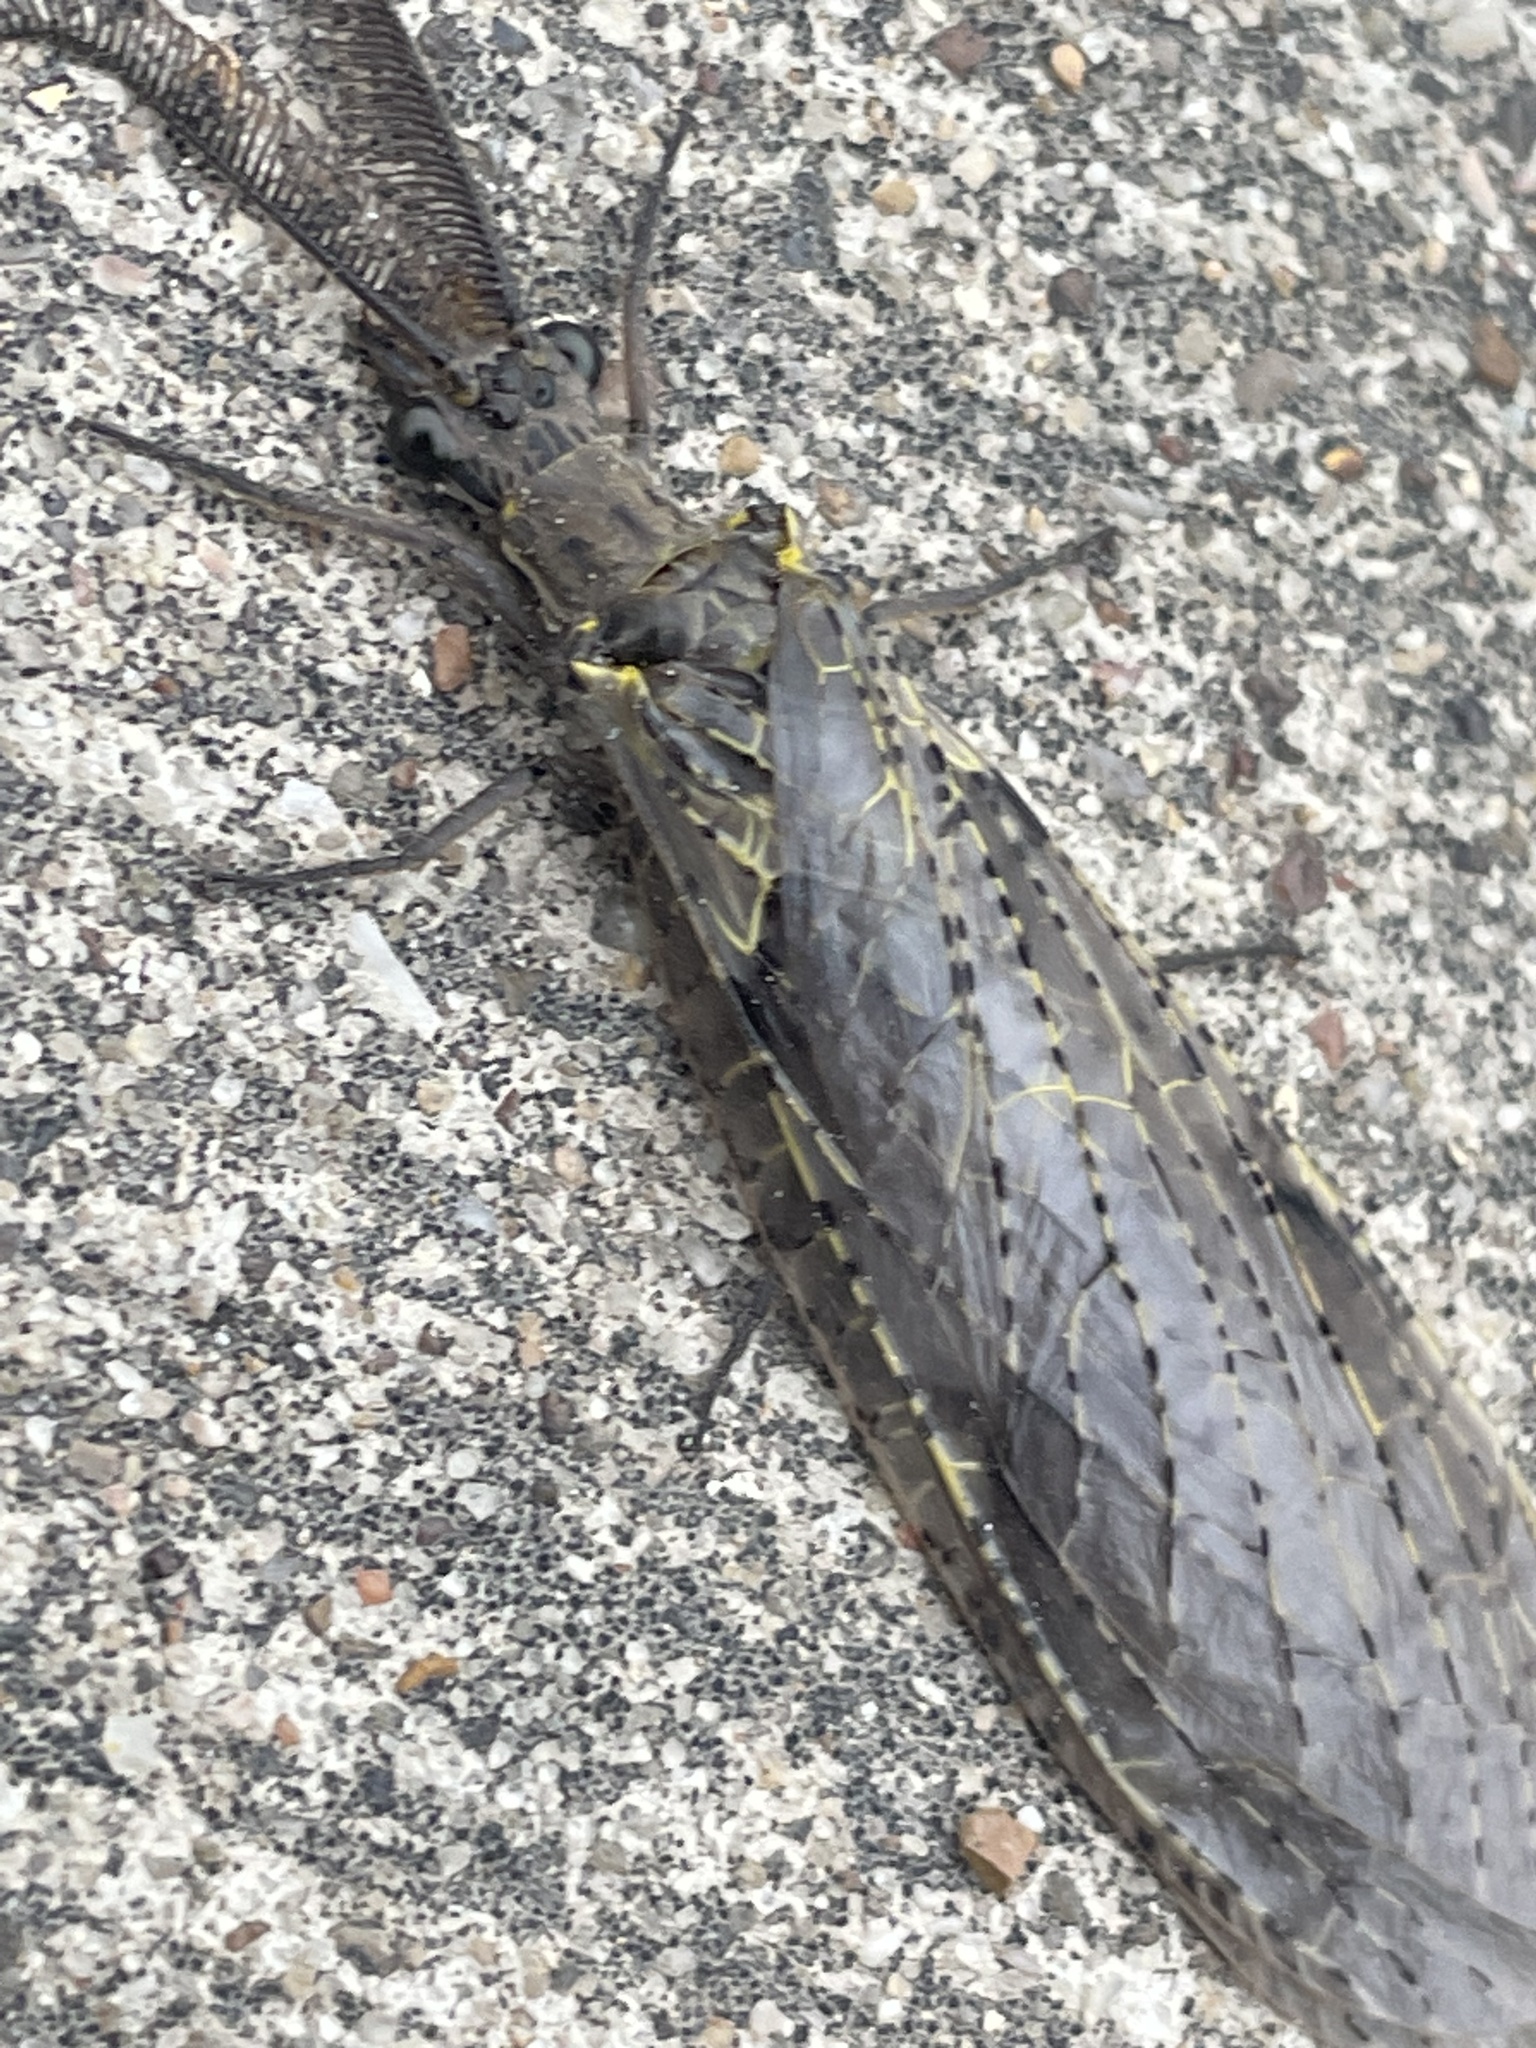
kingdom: Animalia
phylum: Arthropoda
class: Insecta
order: Megaloptera
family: Corydalidae
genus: Chauliodes
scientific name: Chauliodes rastricornis
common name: Spring fishfly
